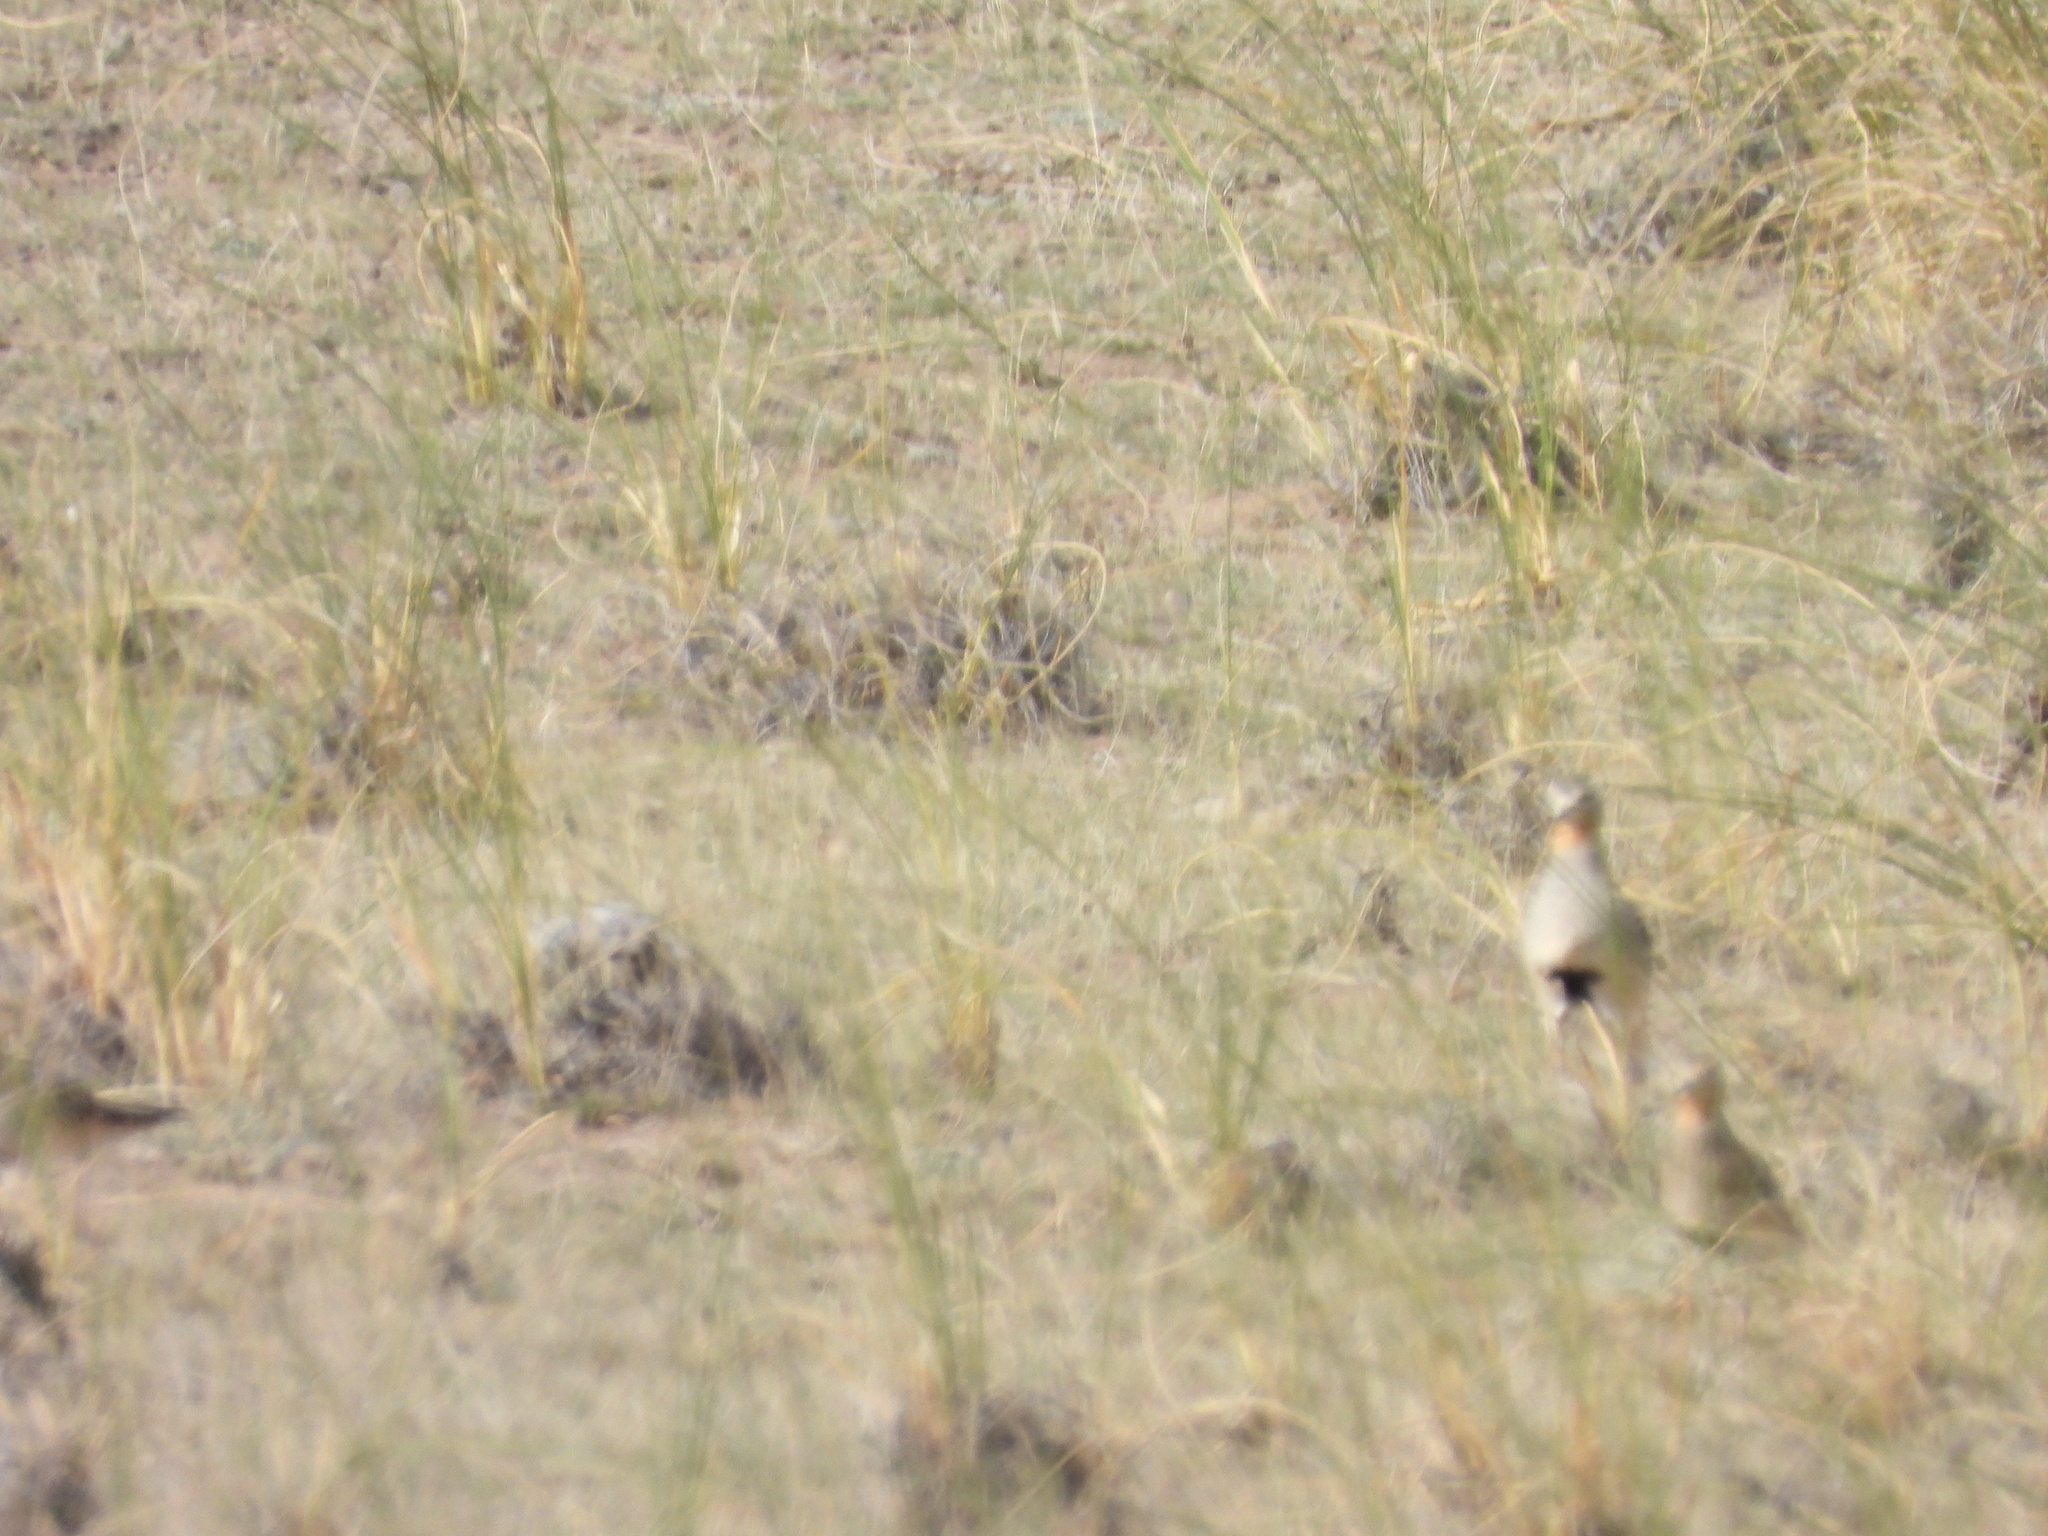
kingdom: Animalia
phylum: Chordata
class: Aves
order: Charadriiformes
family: Charadriidae
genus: Oreopholus
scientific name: Oreopholus ruficollis
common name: Tawny-throated dotterel
